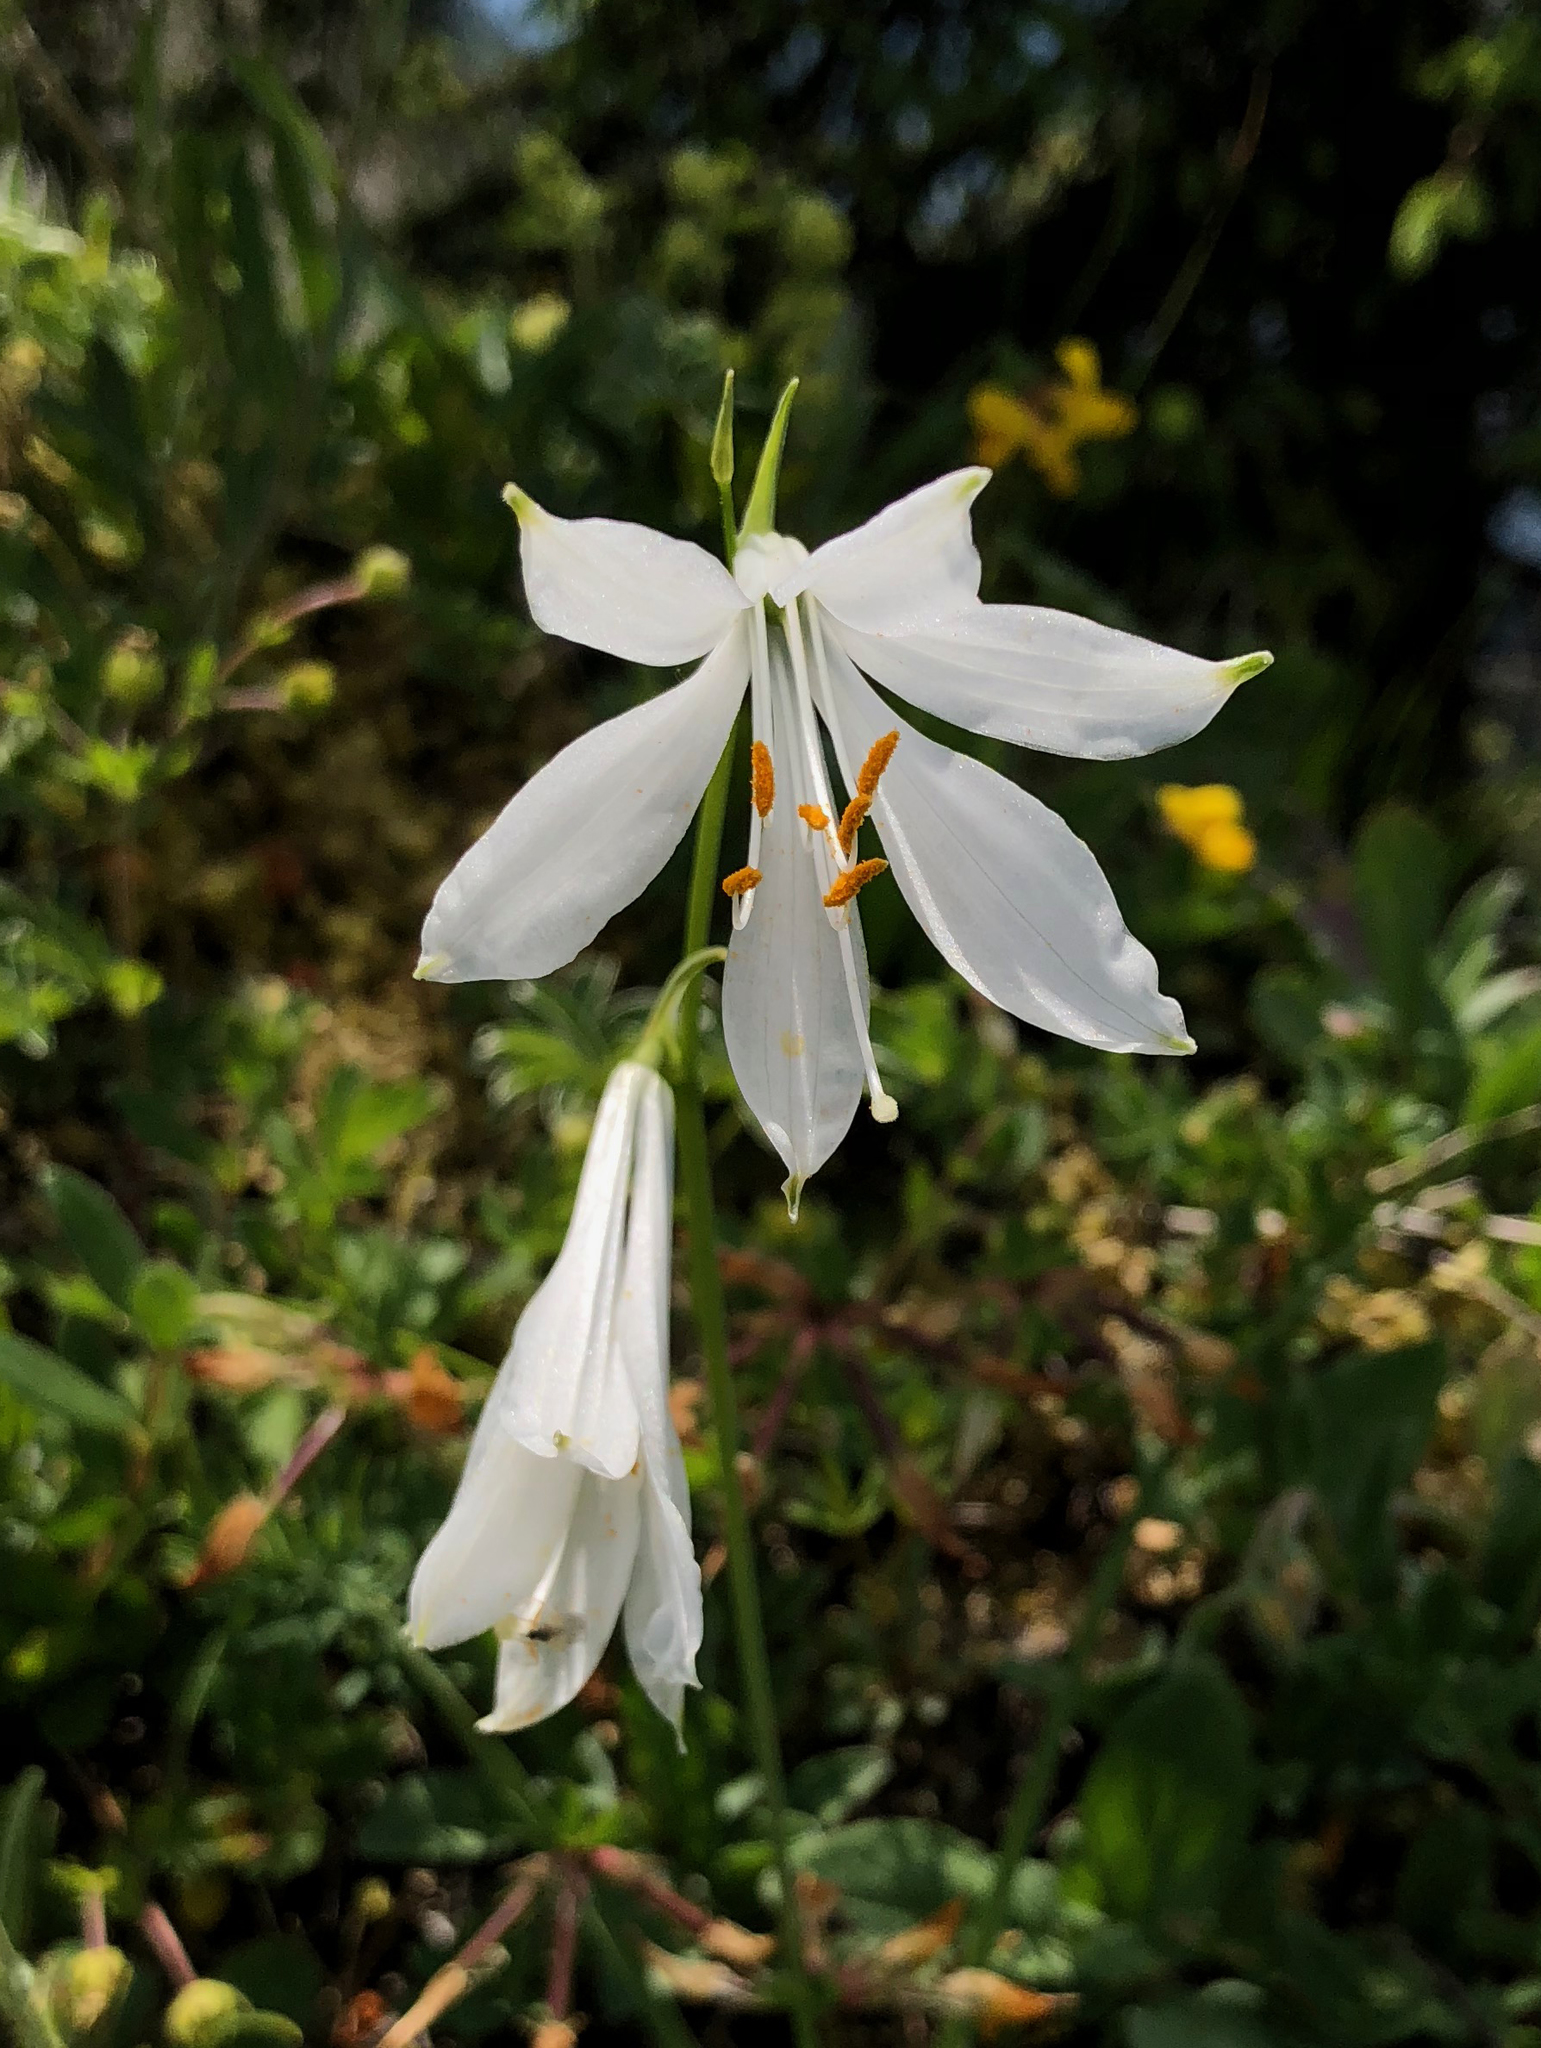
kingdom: Plantae
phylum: Tracheophyta
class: Liliopsida
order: Asparagales
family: Asparagaceae
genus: Paradisea
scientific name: Paradisea liliastrum
